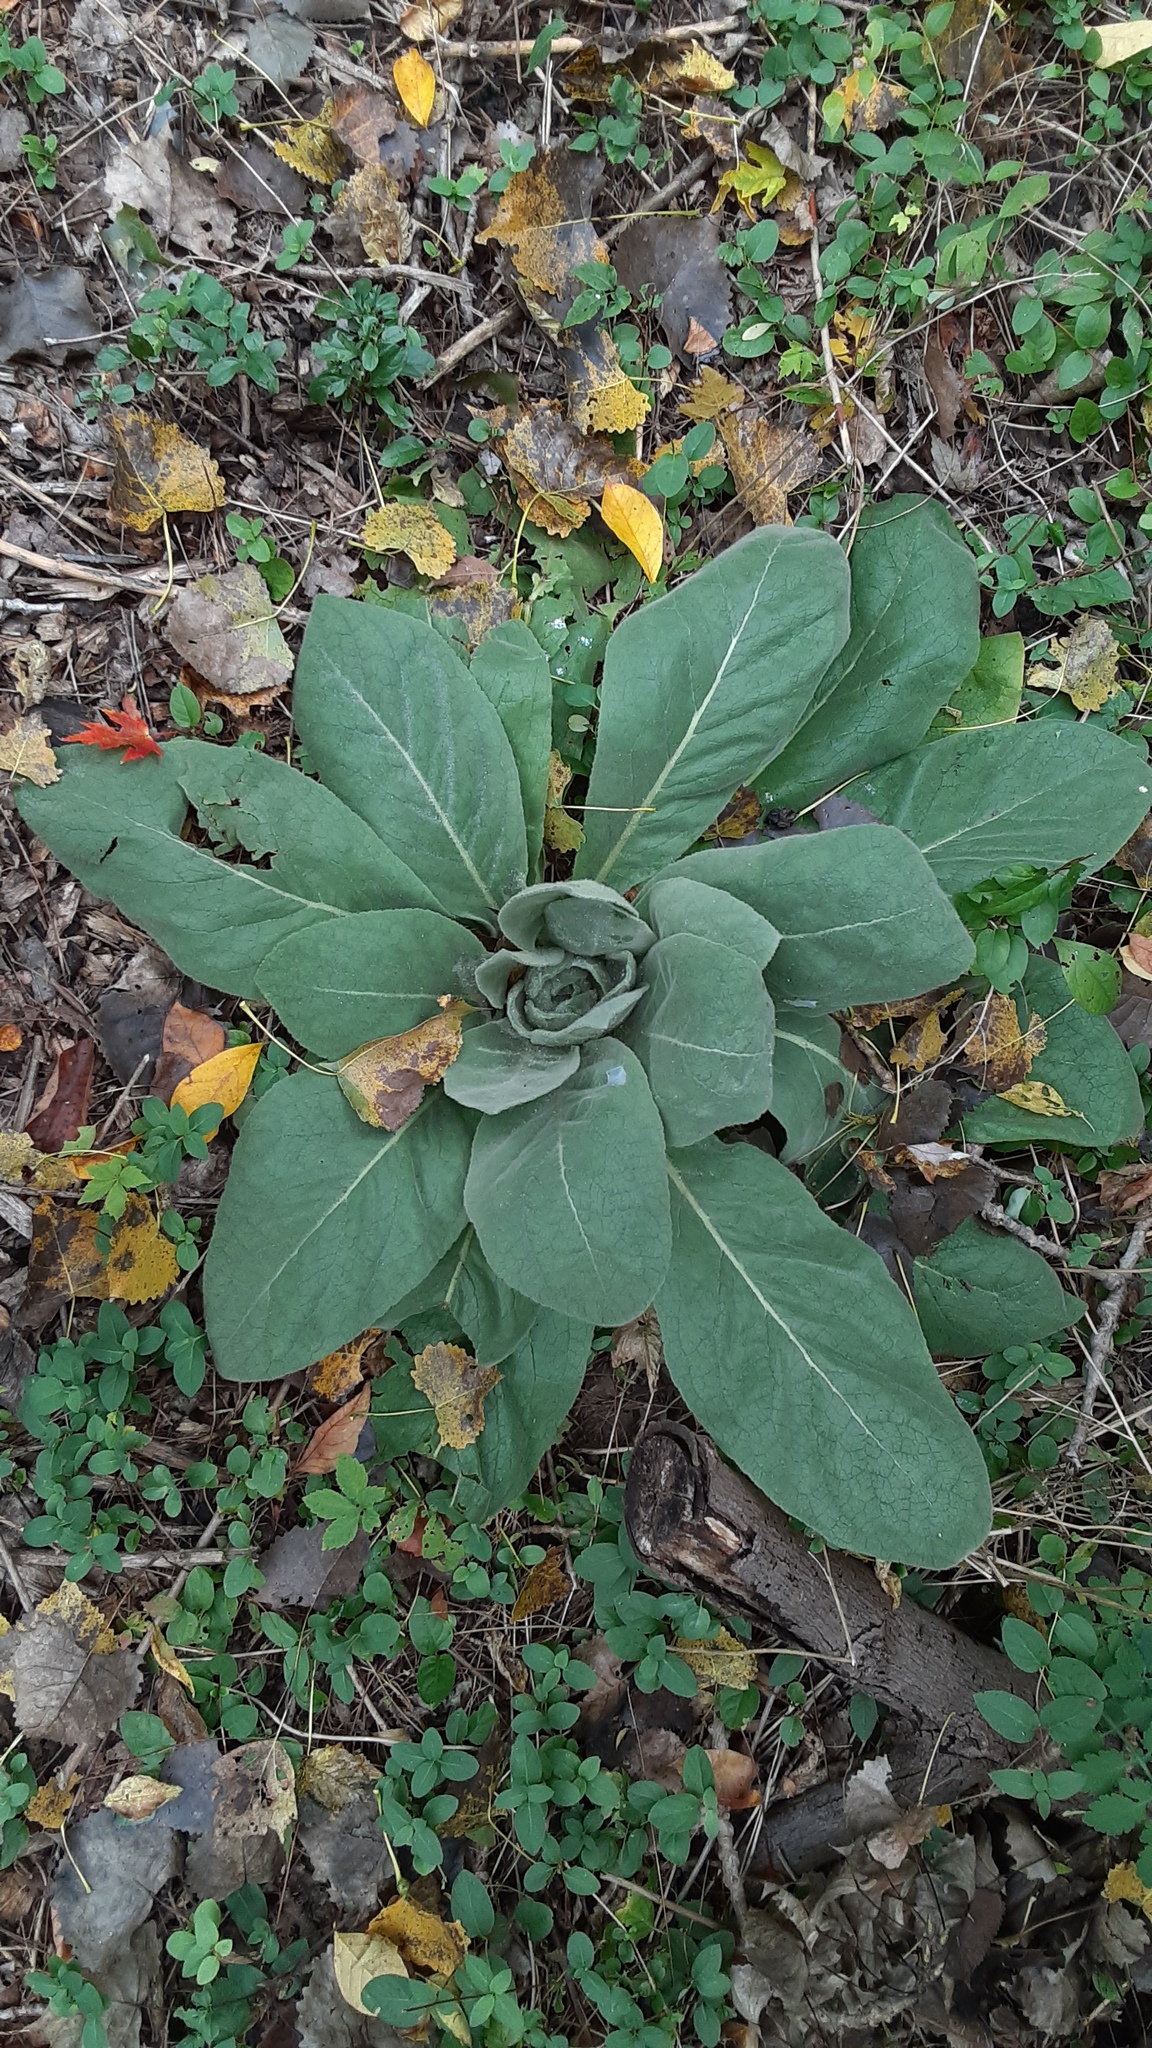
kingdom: Plantae
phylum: Tracheophyta
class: Magnoliopsida
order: Lamiales
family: Scrophulariaceae
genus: Verbascum
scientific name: Verbascum thapsus
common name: Common mullein
